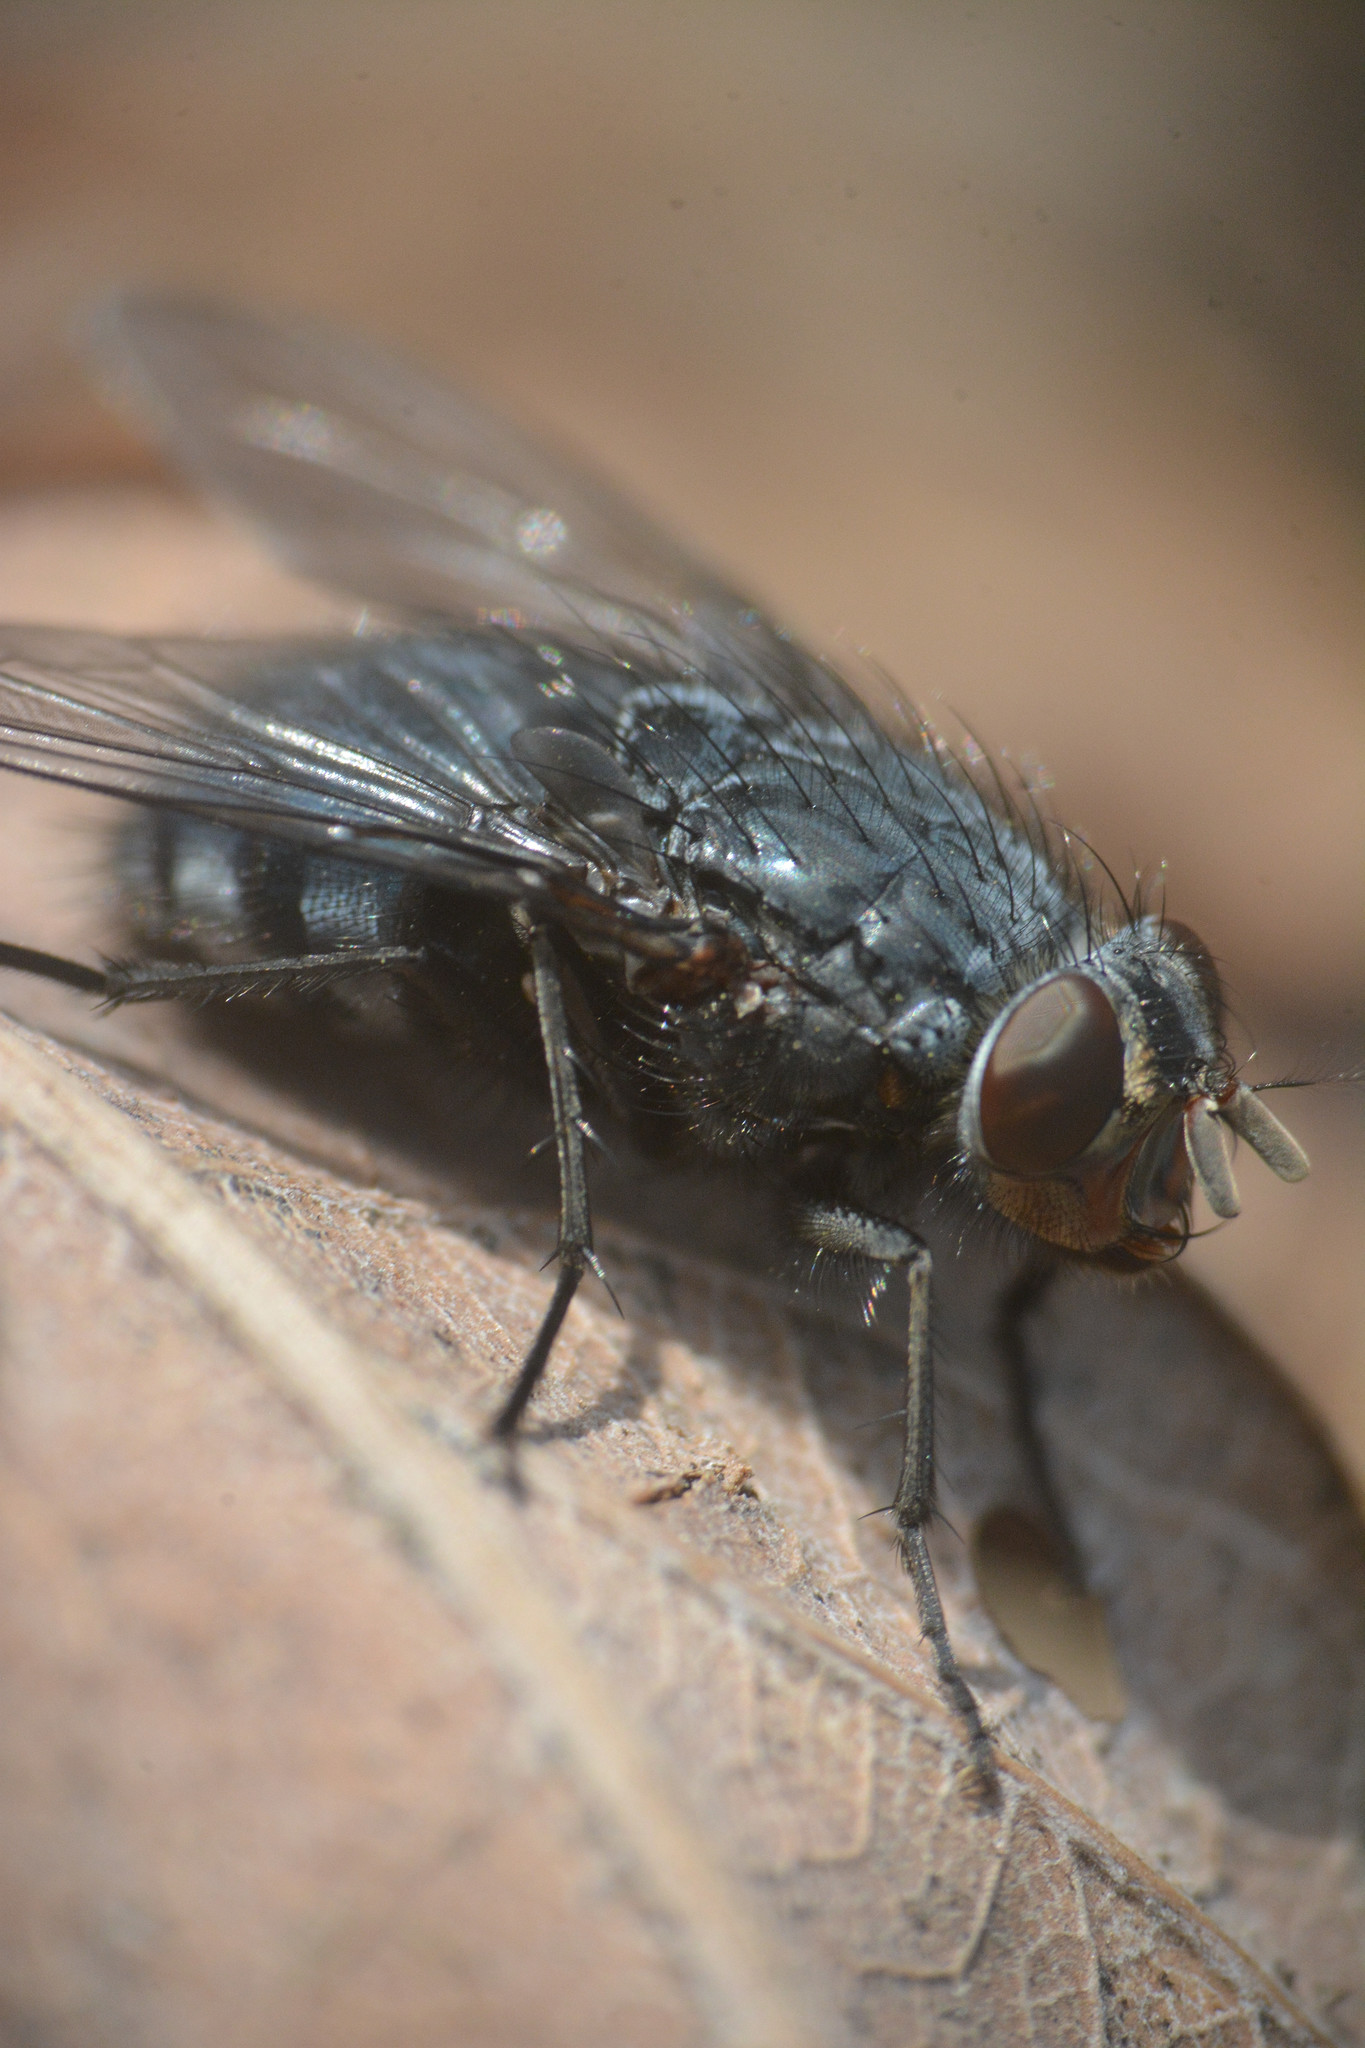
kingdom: Animalia
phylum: Arthropoda
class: Insecta
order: Diptera
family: Calliphoridae
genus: Calliphora
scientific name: Calliphora vicina
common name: Common blow flie
